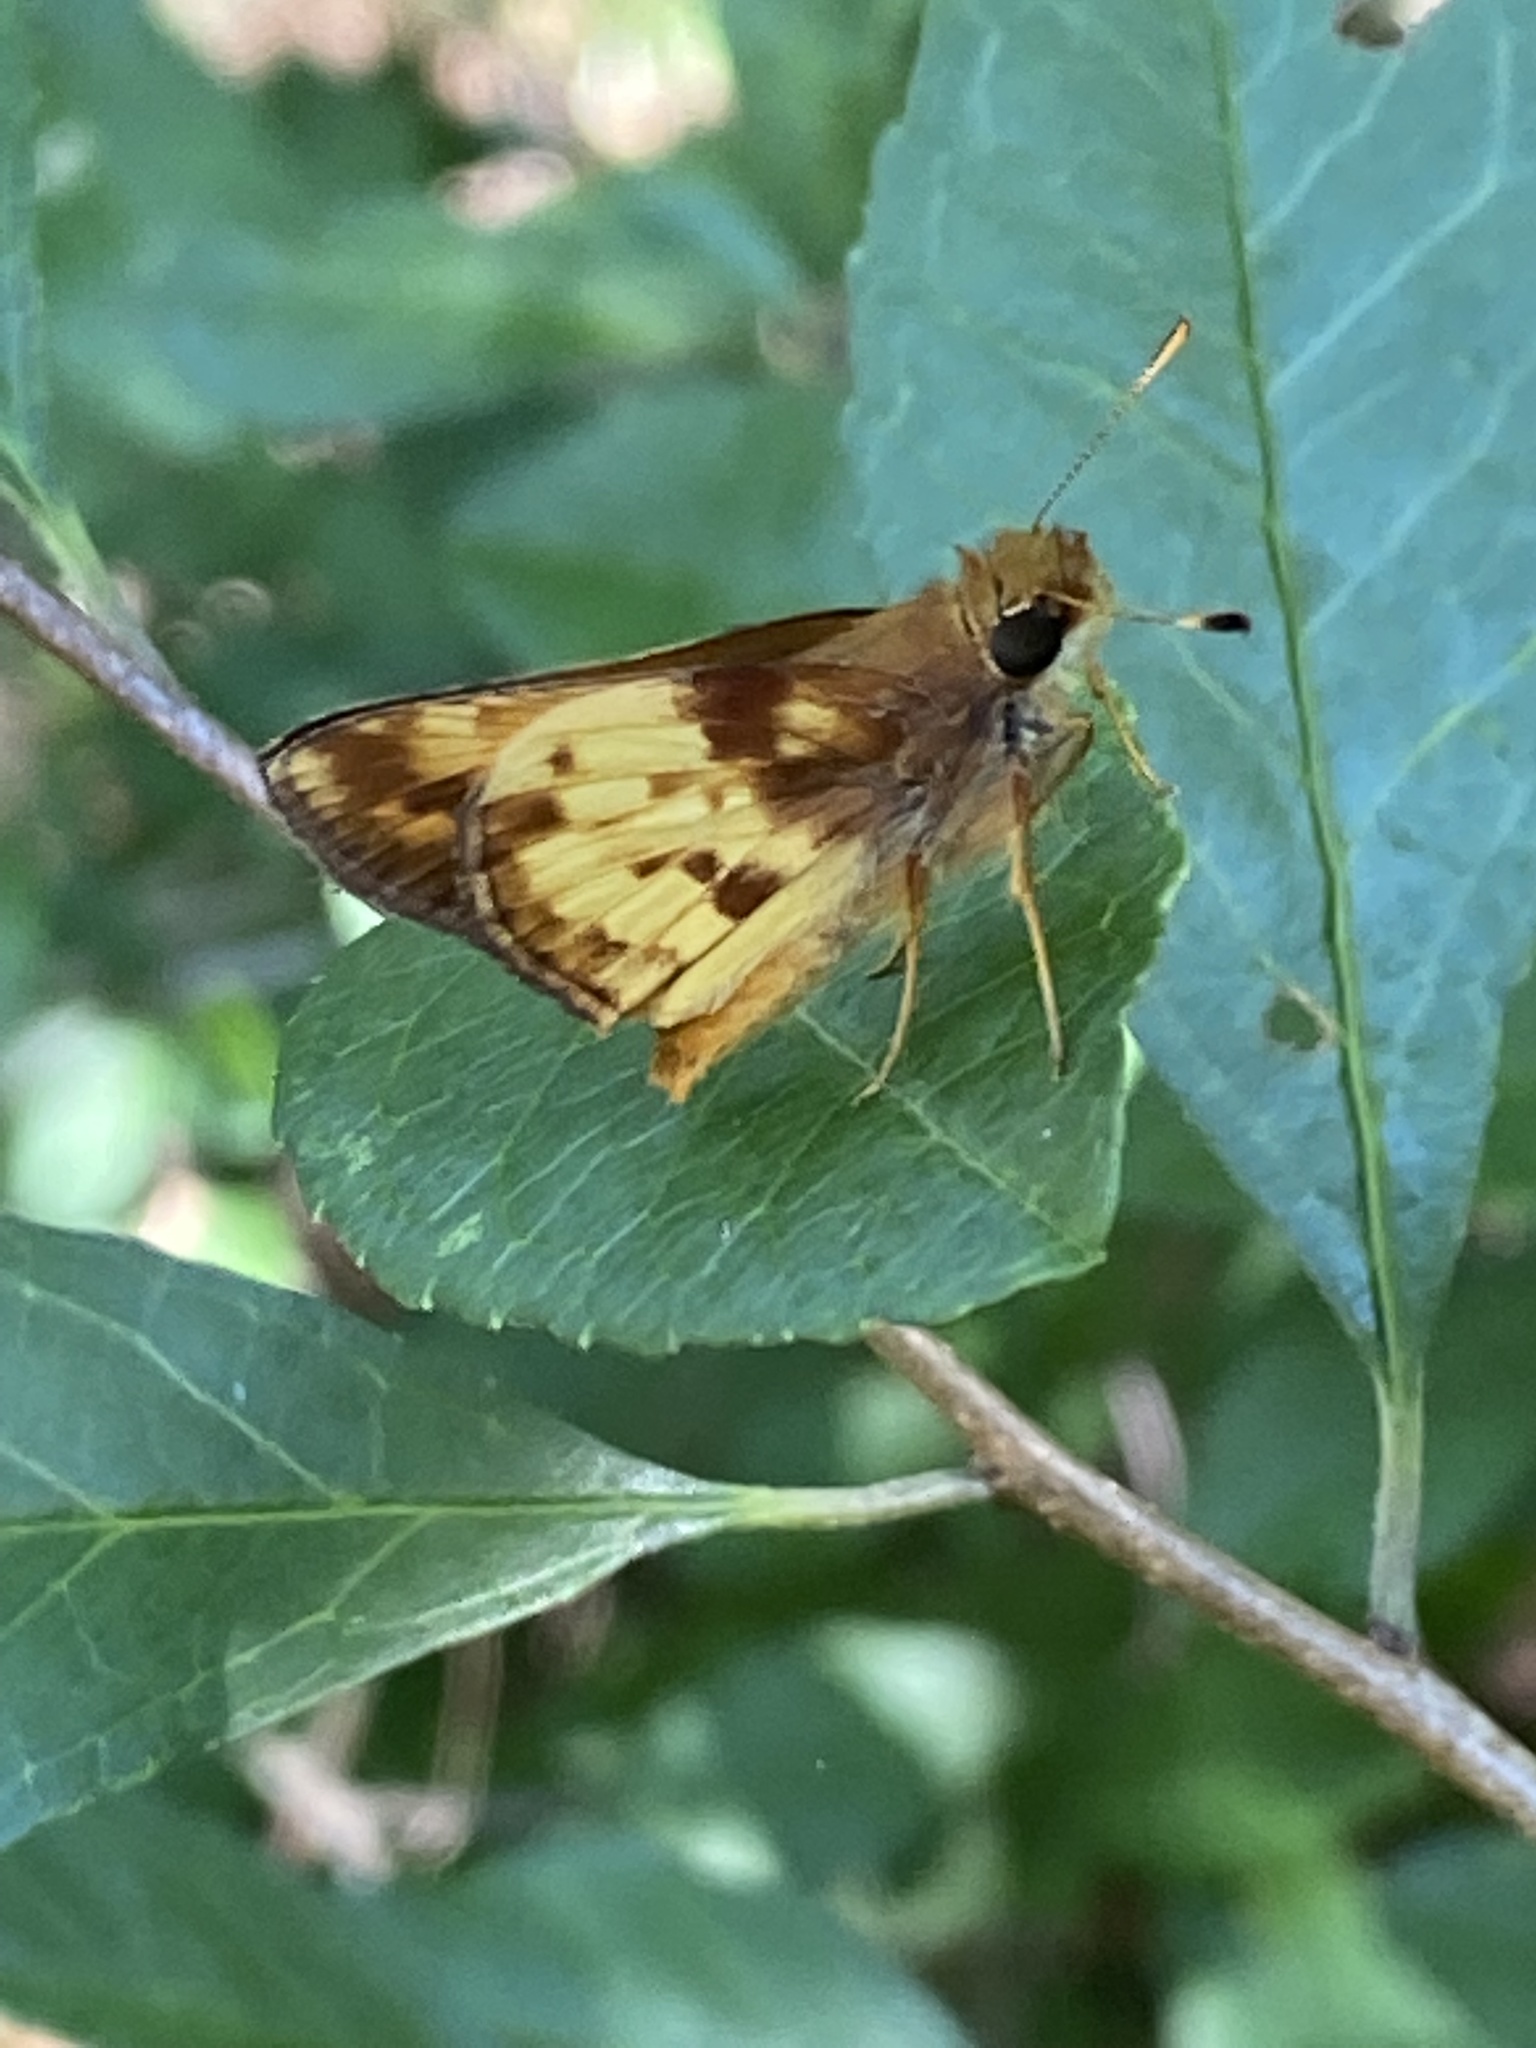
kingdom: Animalia
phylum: Arthropoda
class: Insecta
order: Lepidoptera
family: Hesperiidae
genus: Lon
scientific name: Lon zabulon
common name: Zabulon skipper
